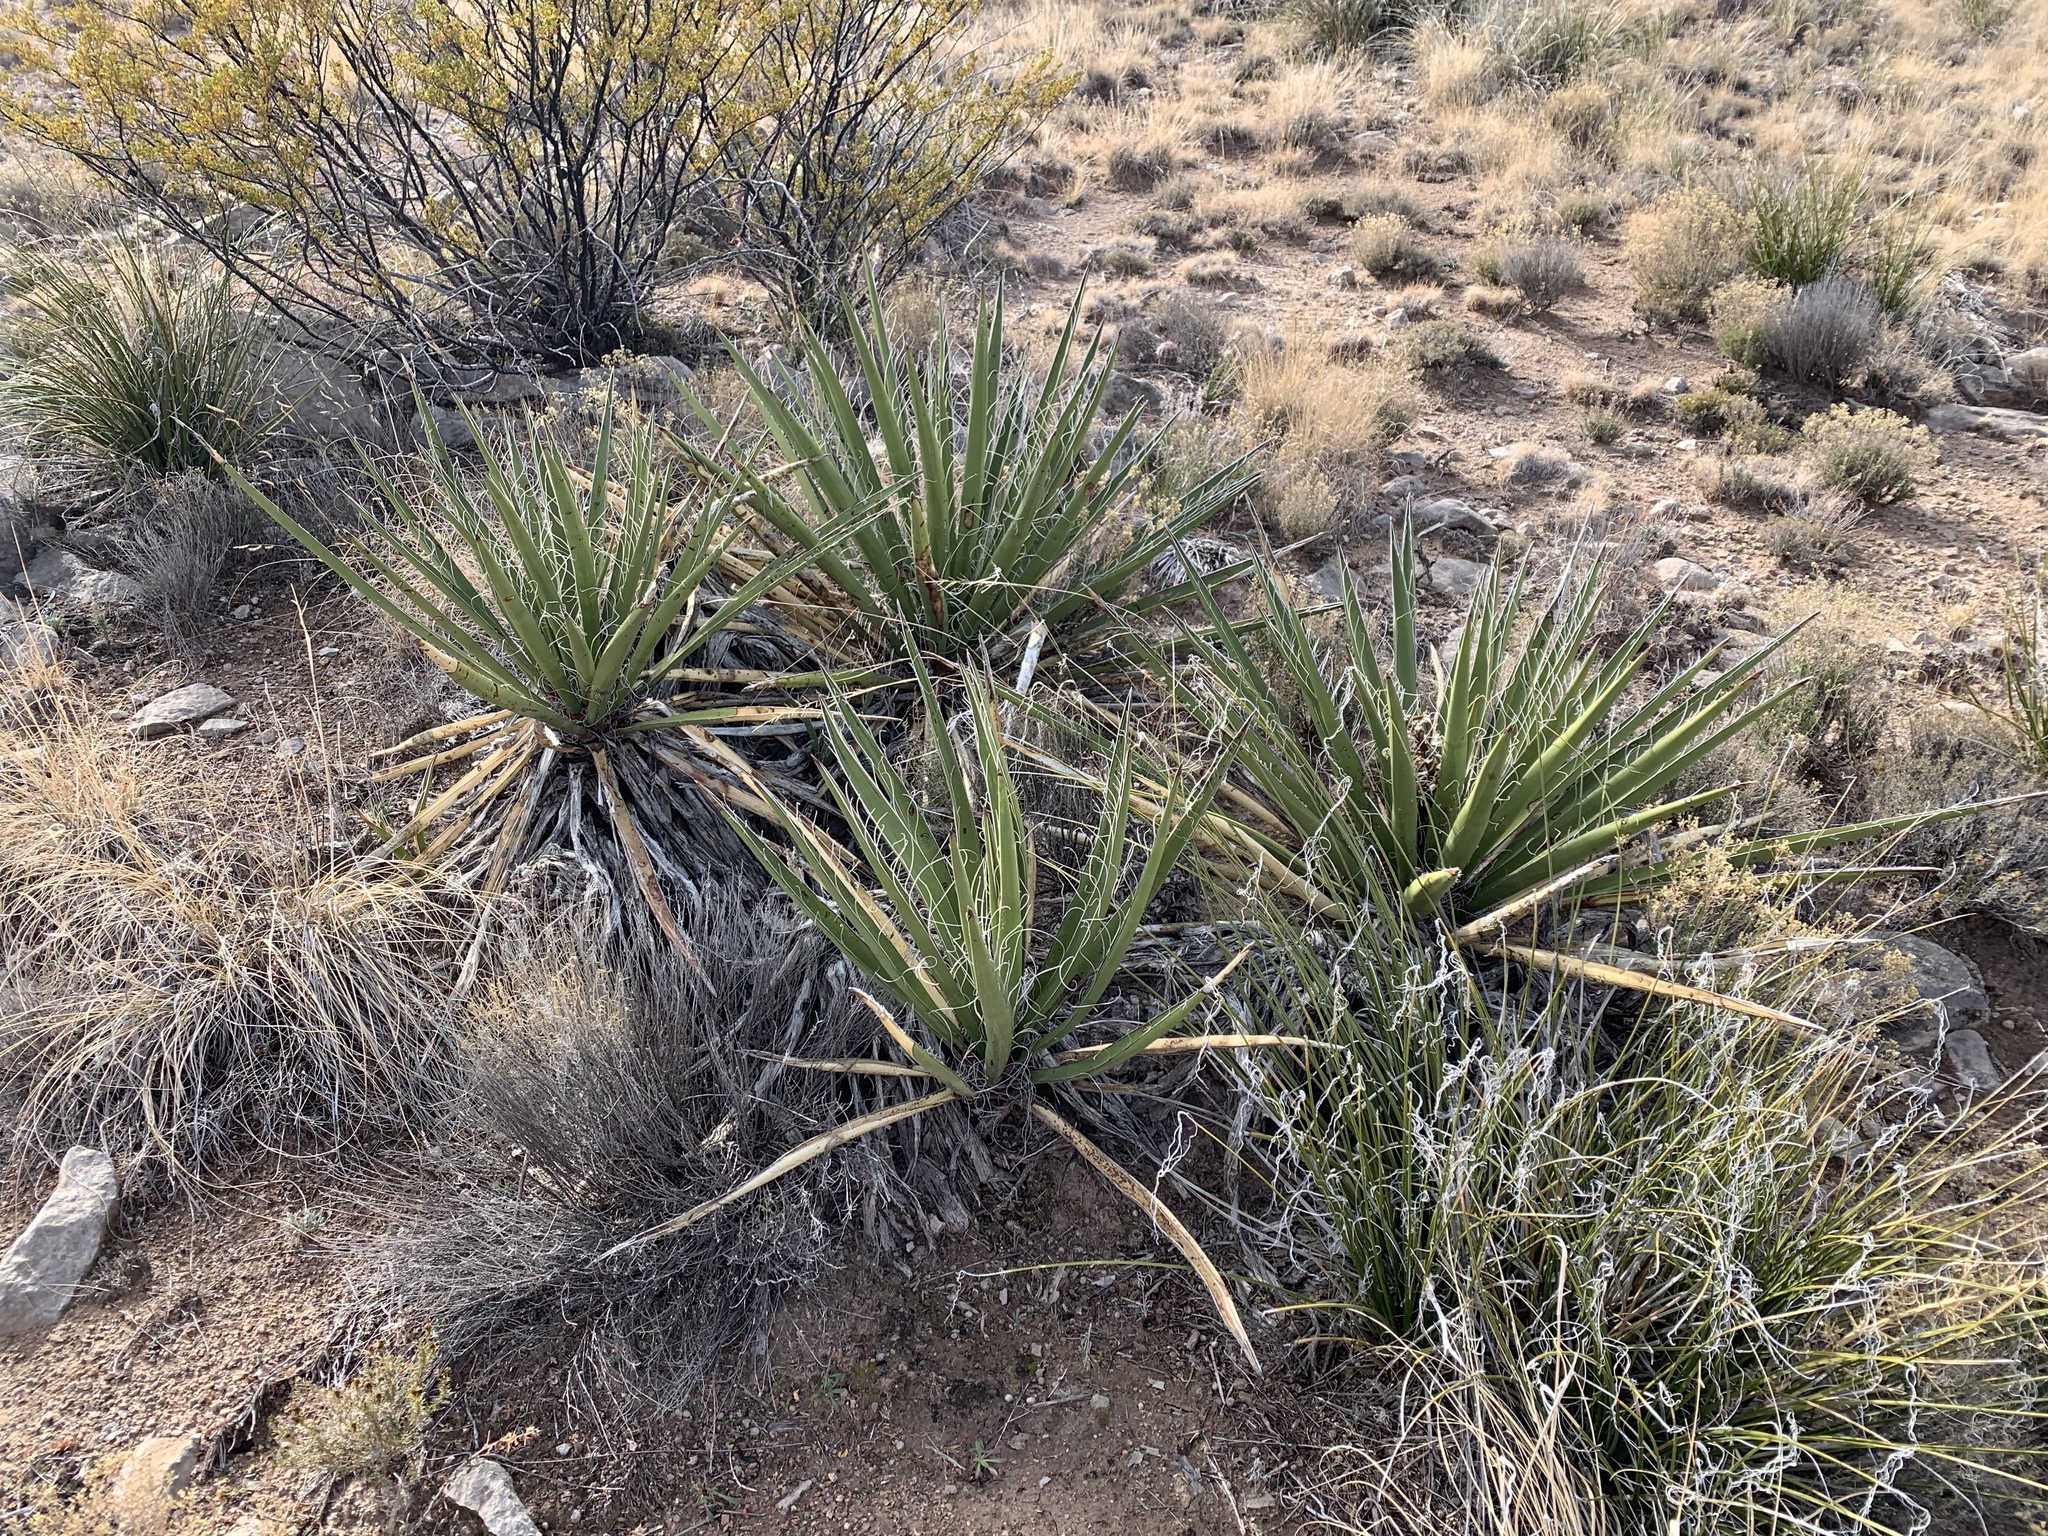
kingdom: Plantae
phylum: Tracheophyta
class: Liliopsida
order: Asparagales
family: Asparagaceae
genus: Yucca
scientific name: Yucca baccata
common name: Banana yucca
